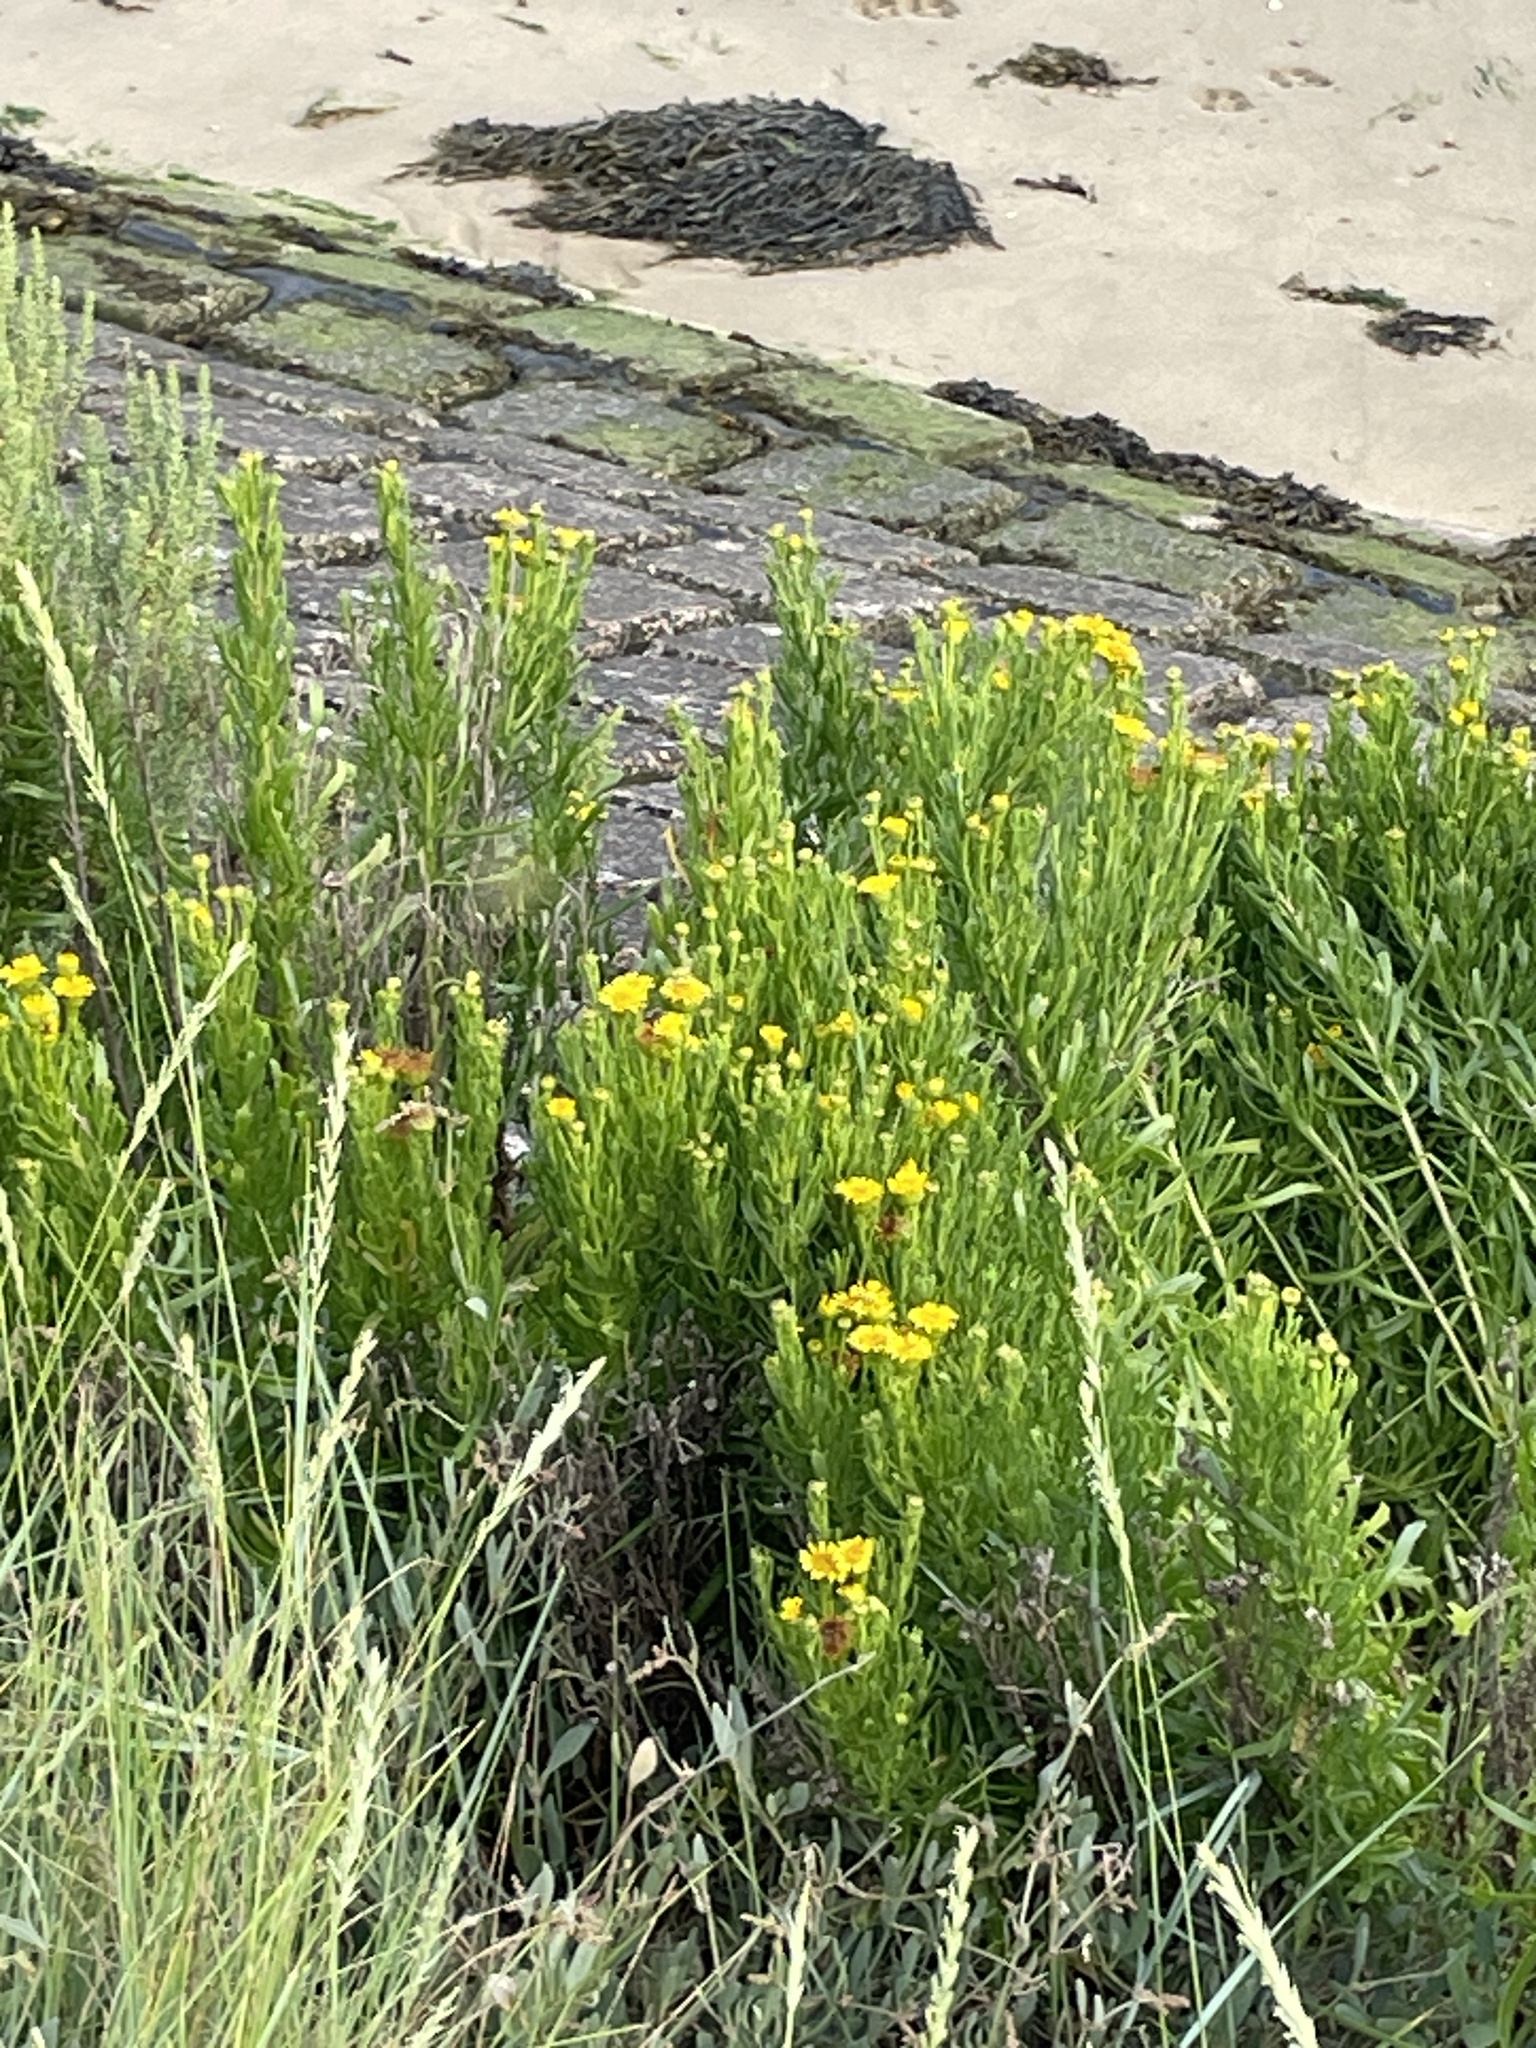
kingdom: Plantae
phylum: Tracheophyta
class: Magnoliopsida
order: Asterales
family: Asteraceae
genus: Limbarda
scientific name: Limbarda crithmoides
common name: Golden samphire
